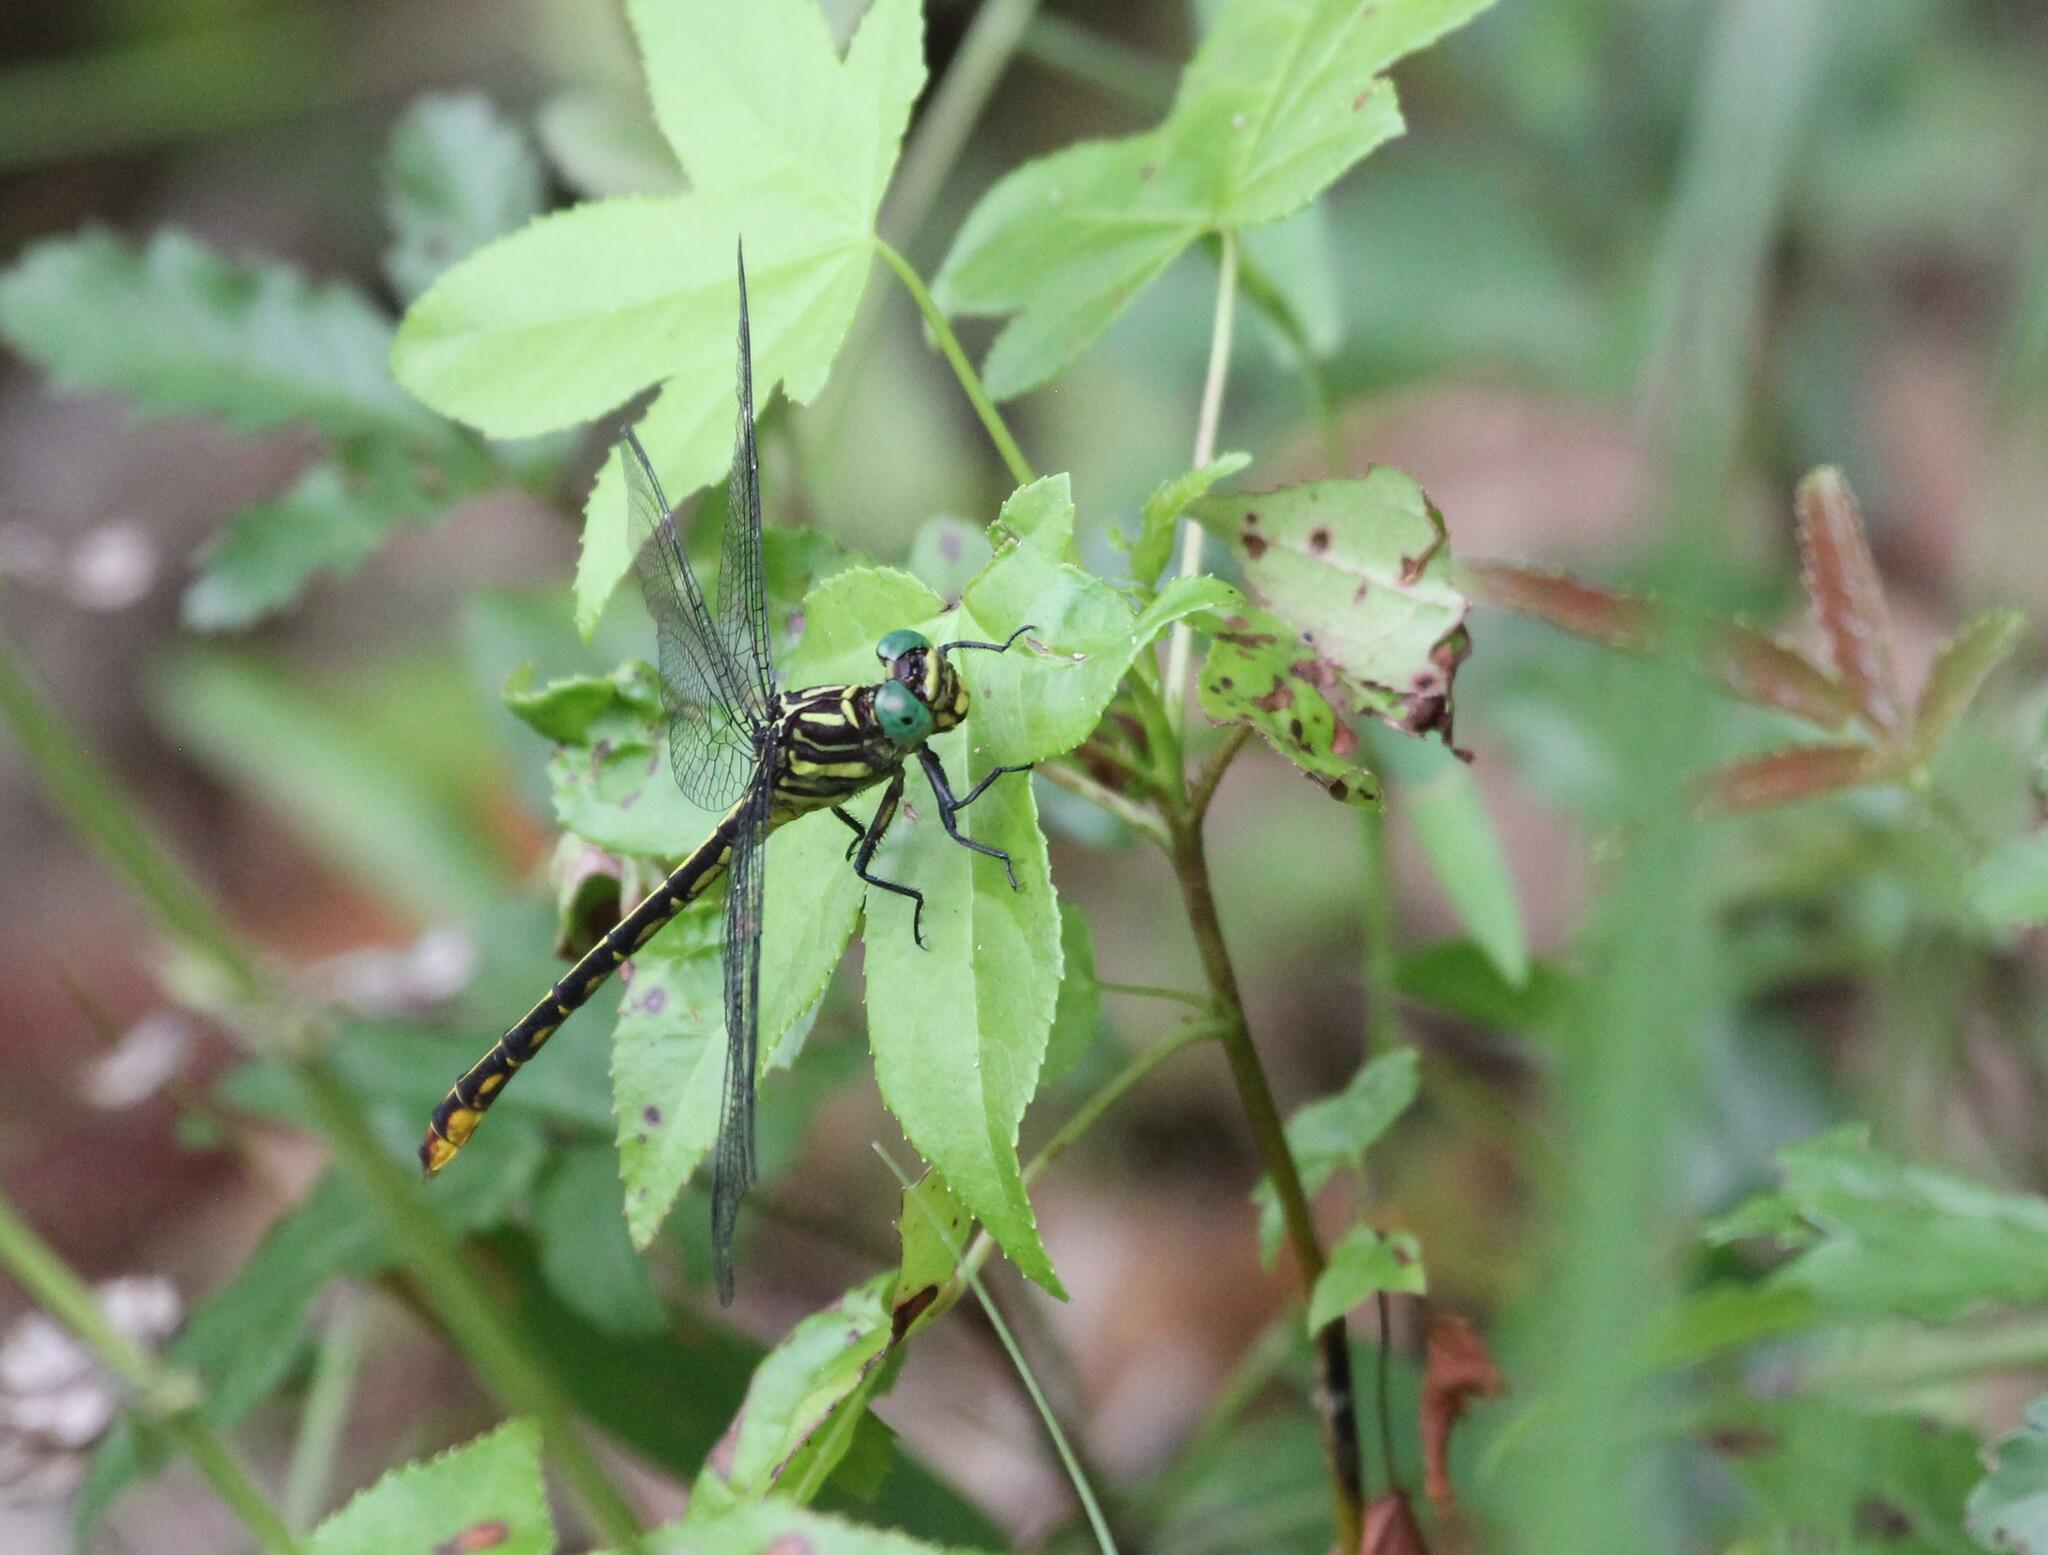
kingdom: Animalia
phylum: Arthropoda
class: Insecta
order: Odonata
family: Gomphidae
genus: Stylurus
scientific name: Stylurus laurae
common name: Laura's clubtail
